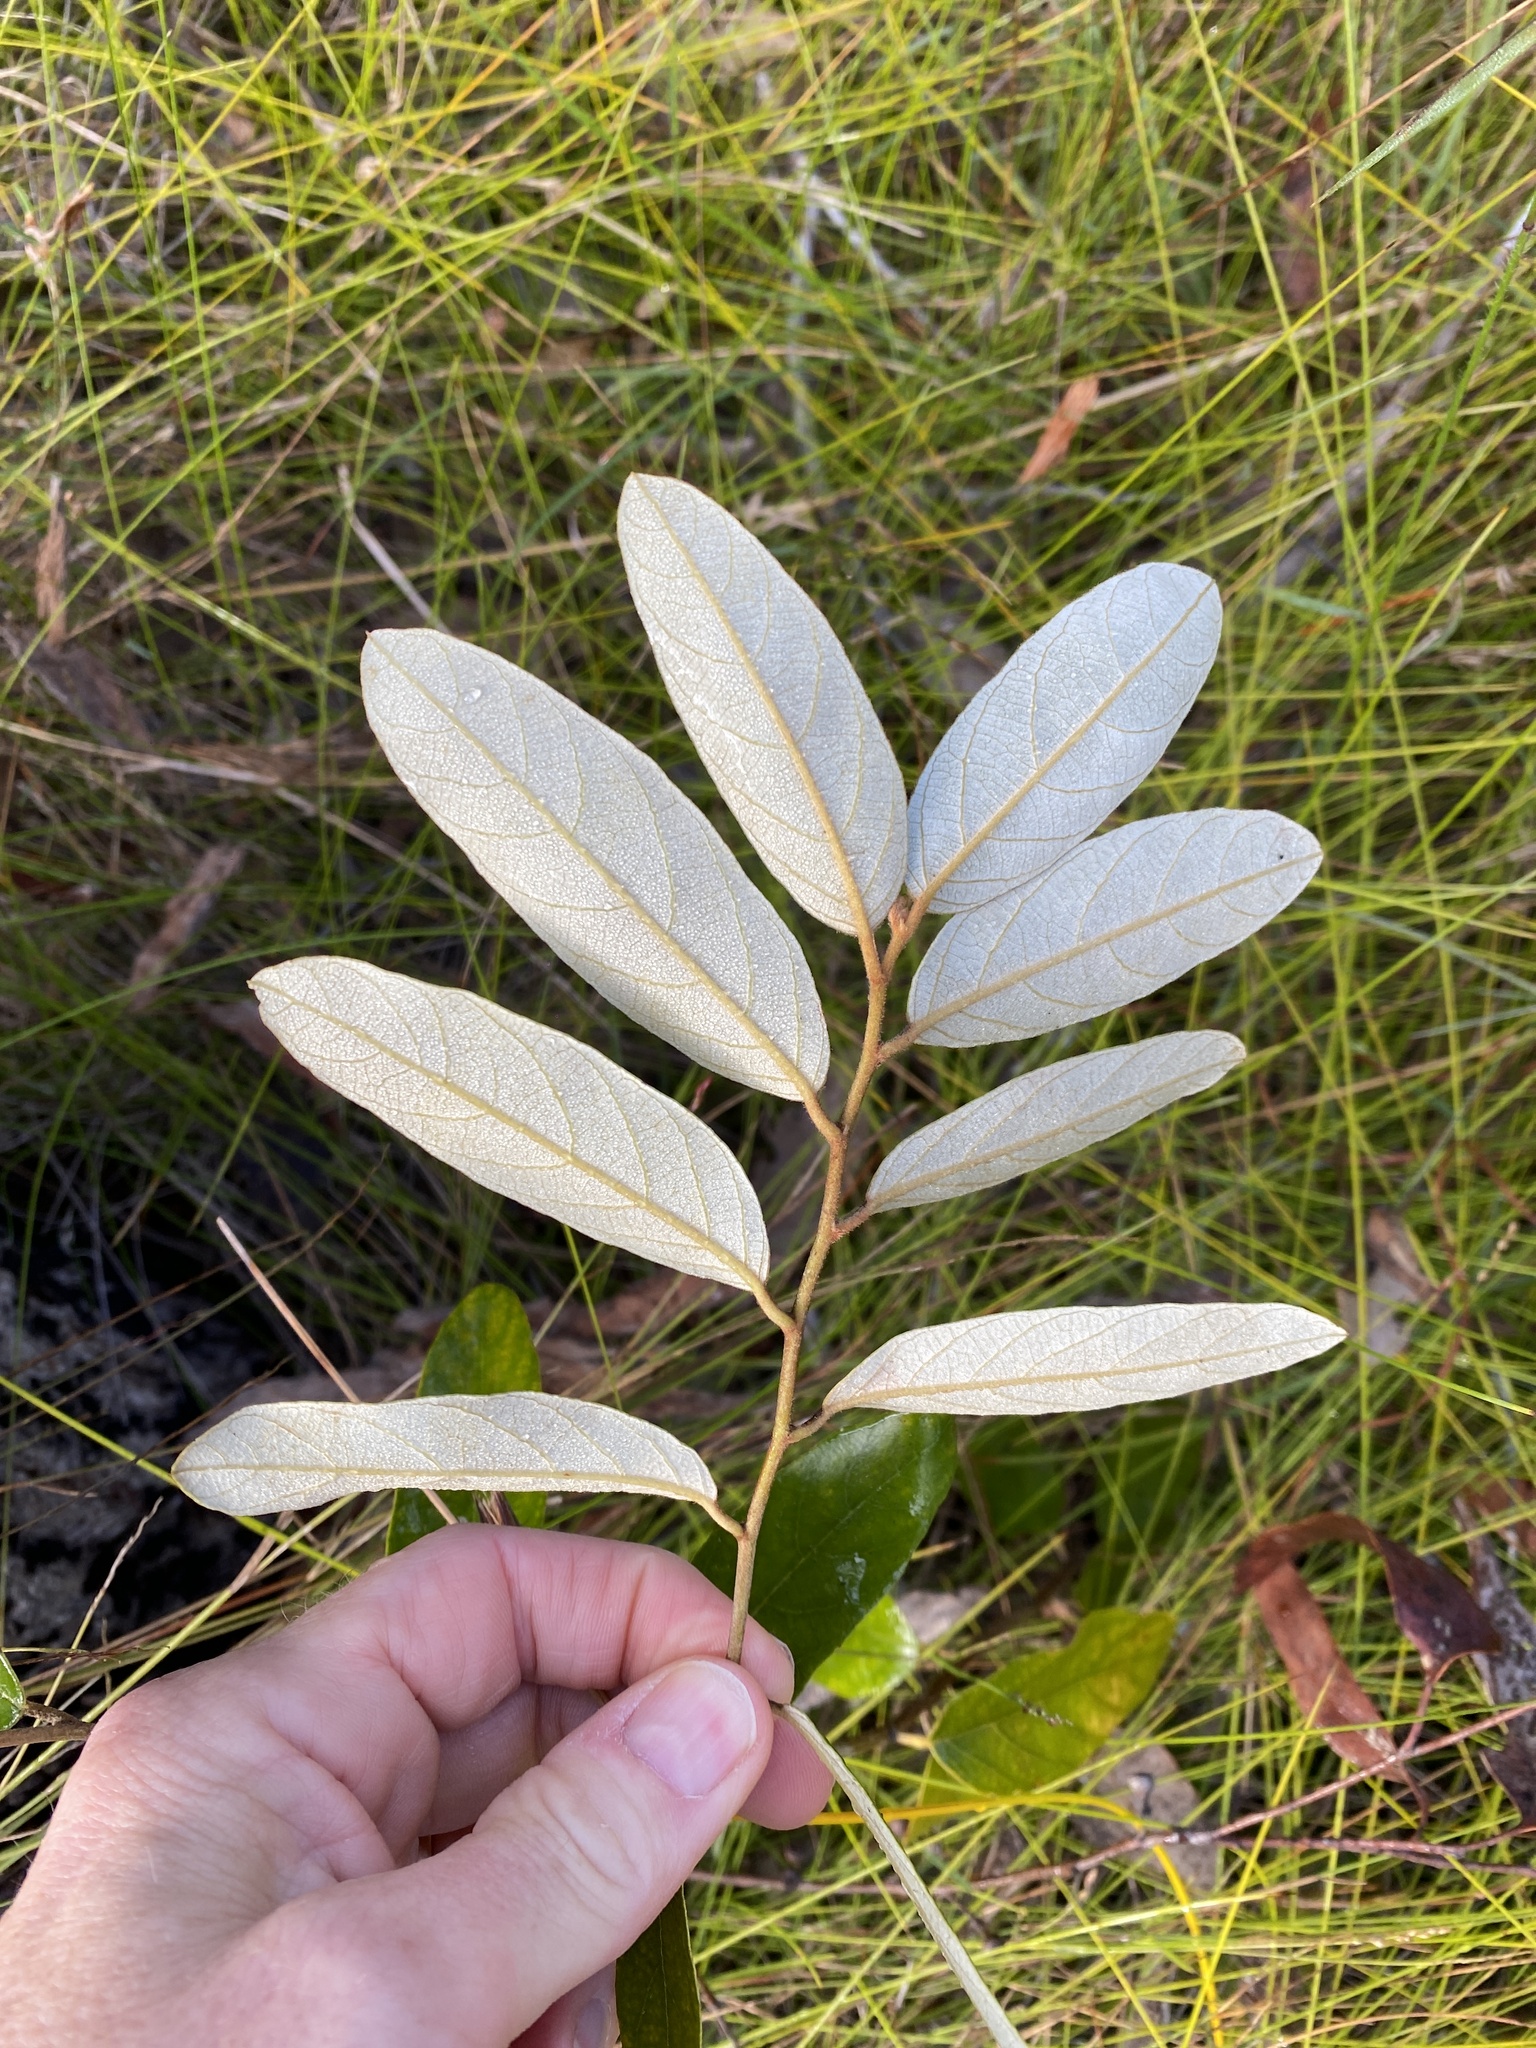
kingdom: Plantae
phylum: Tracheophyta
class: Magnoliopsida
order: Rosales
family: Rhamnaceae
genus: Alphitonia
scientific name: Alphitonia excelsa
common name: Red ash
